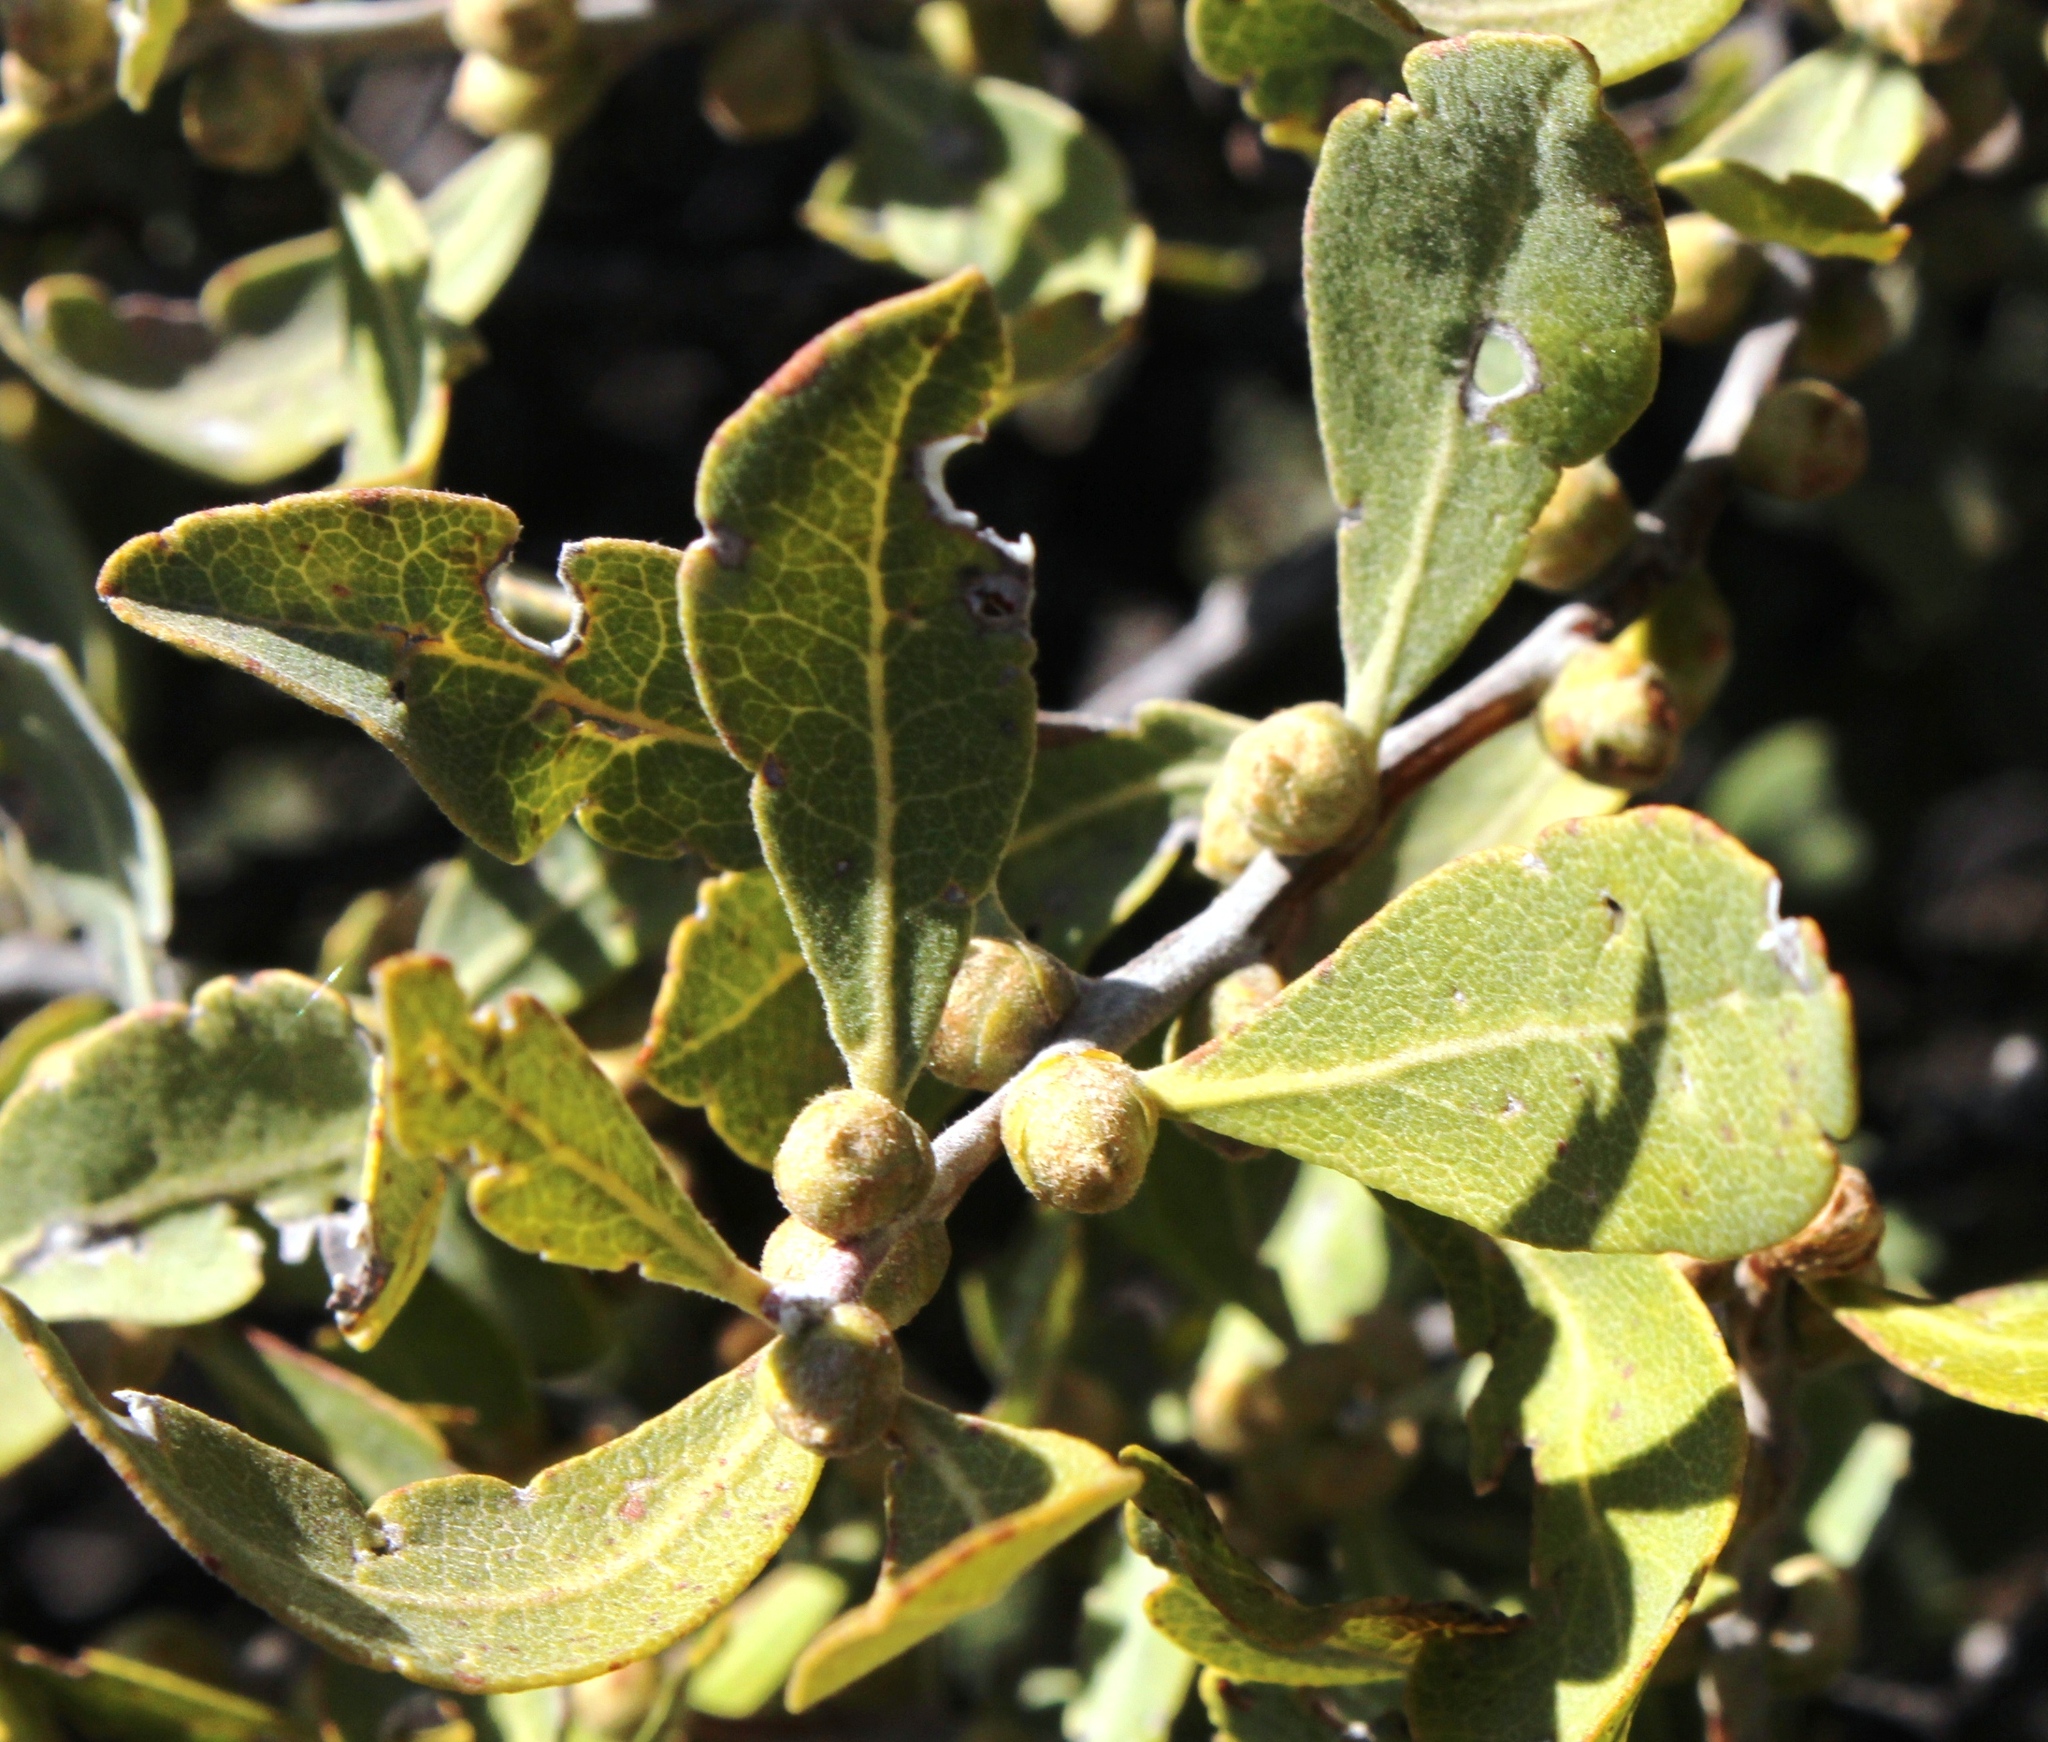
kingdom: Plantae
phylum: Tracheophyta
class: Magnoliopsida
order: Ericales
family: Ebenaceae
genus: Euclea
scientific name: Euclea tomentosa
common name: Honey guarri
